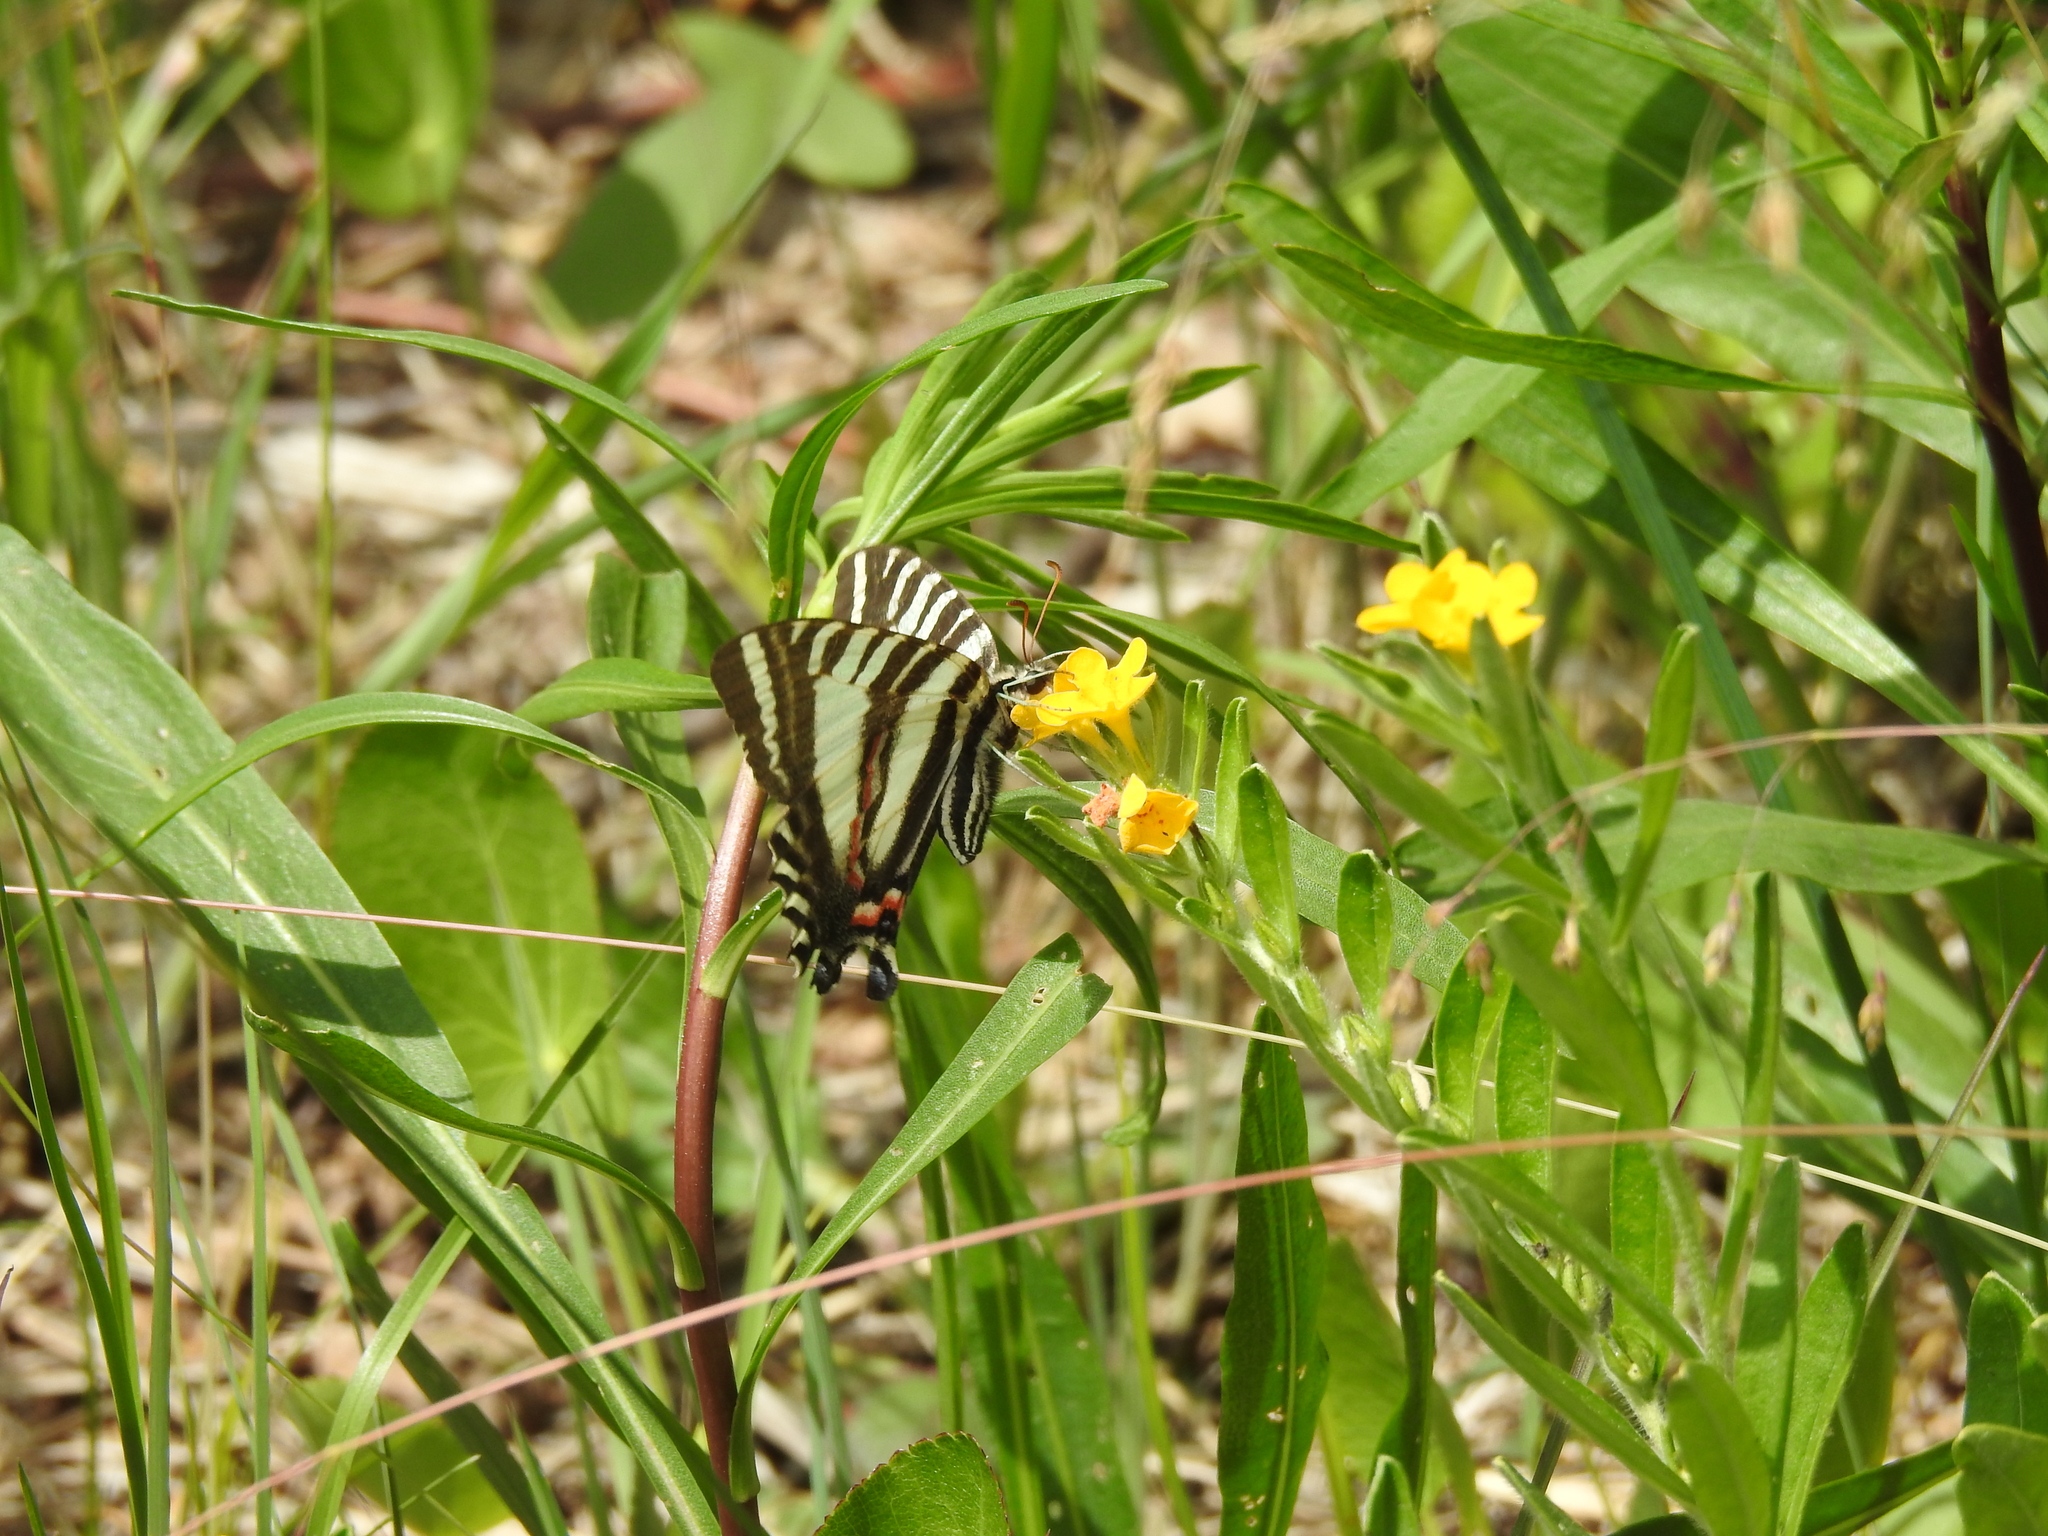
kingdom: Animalia
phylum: Arthropoda
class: Insecta
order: Lepidoptera
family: Papilionidae
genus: Protographium
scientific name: Protographium marcellus
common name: Zebra swallowtail
